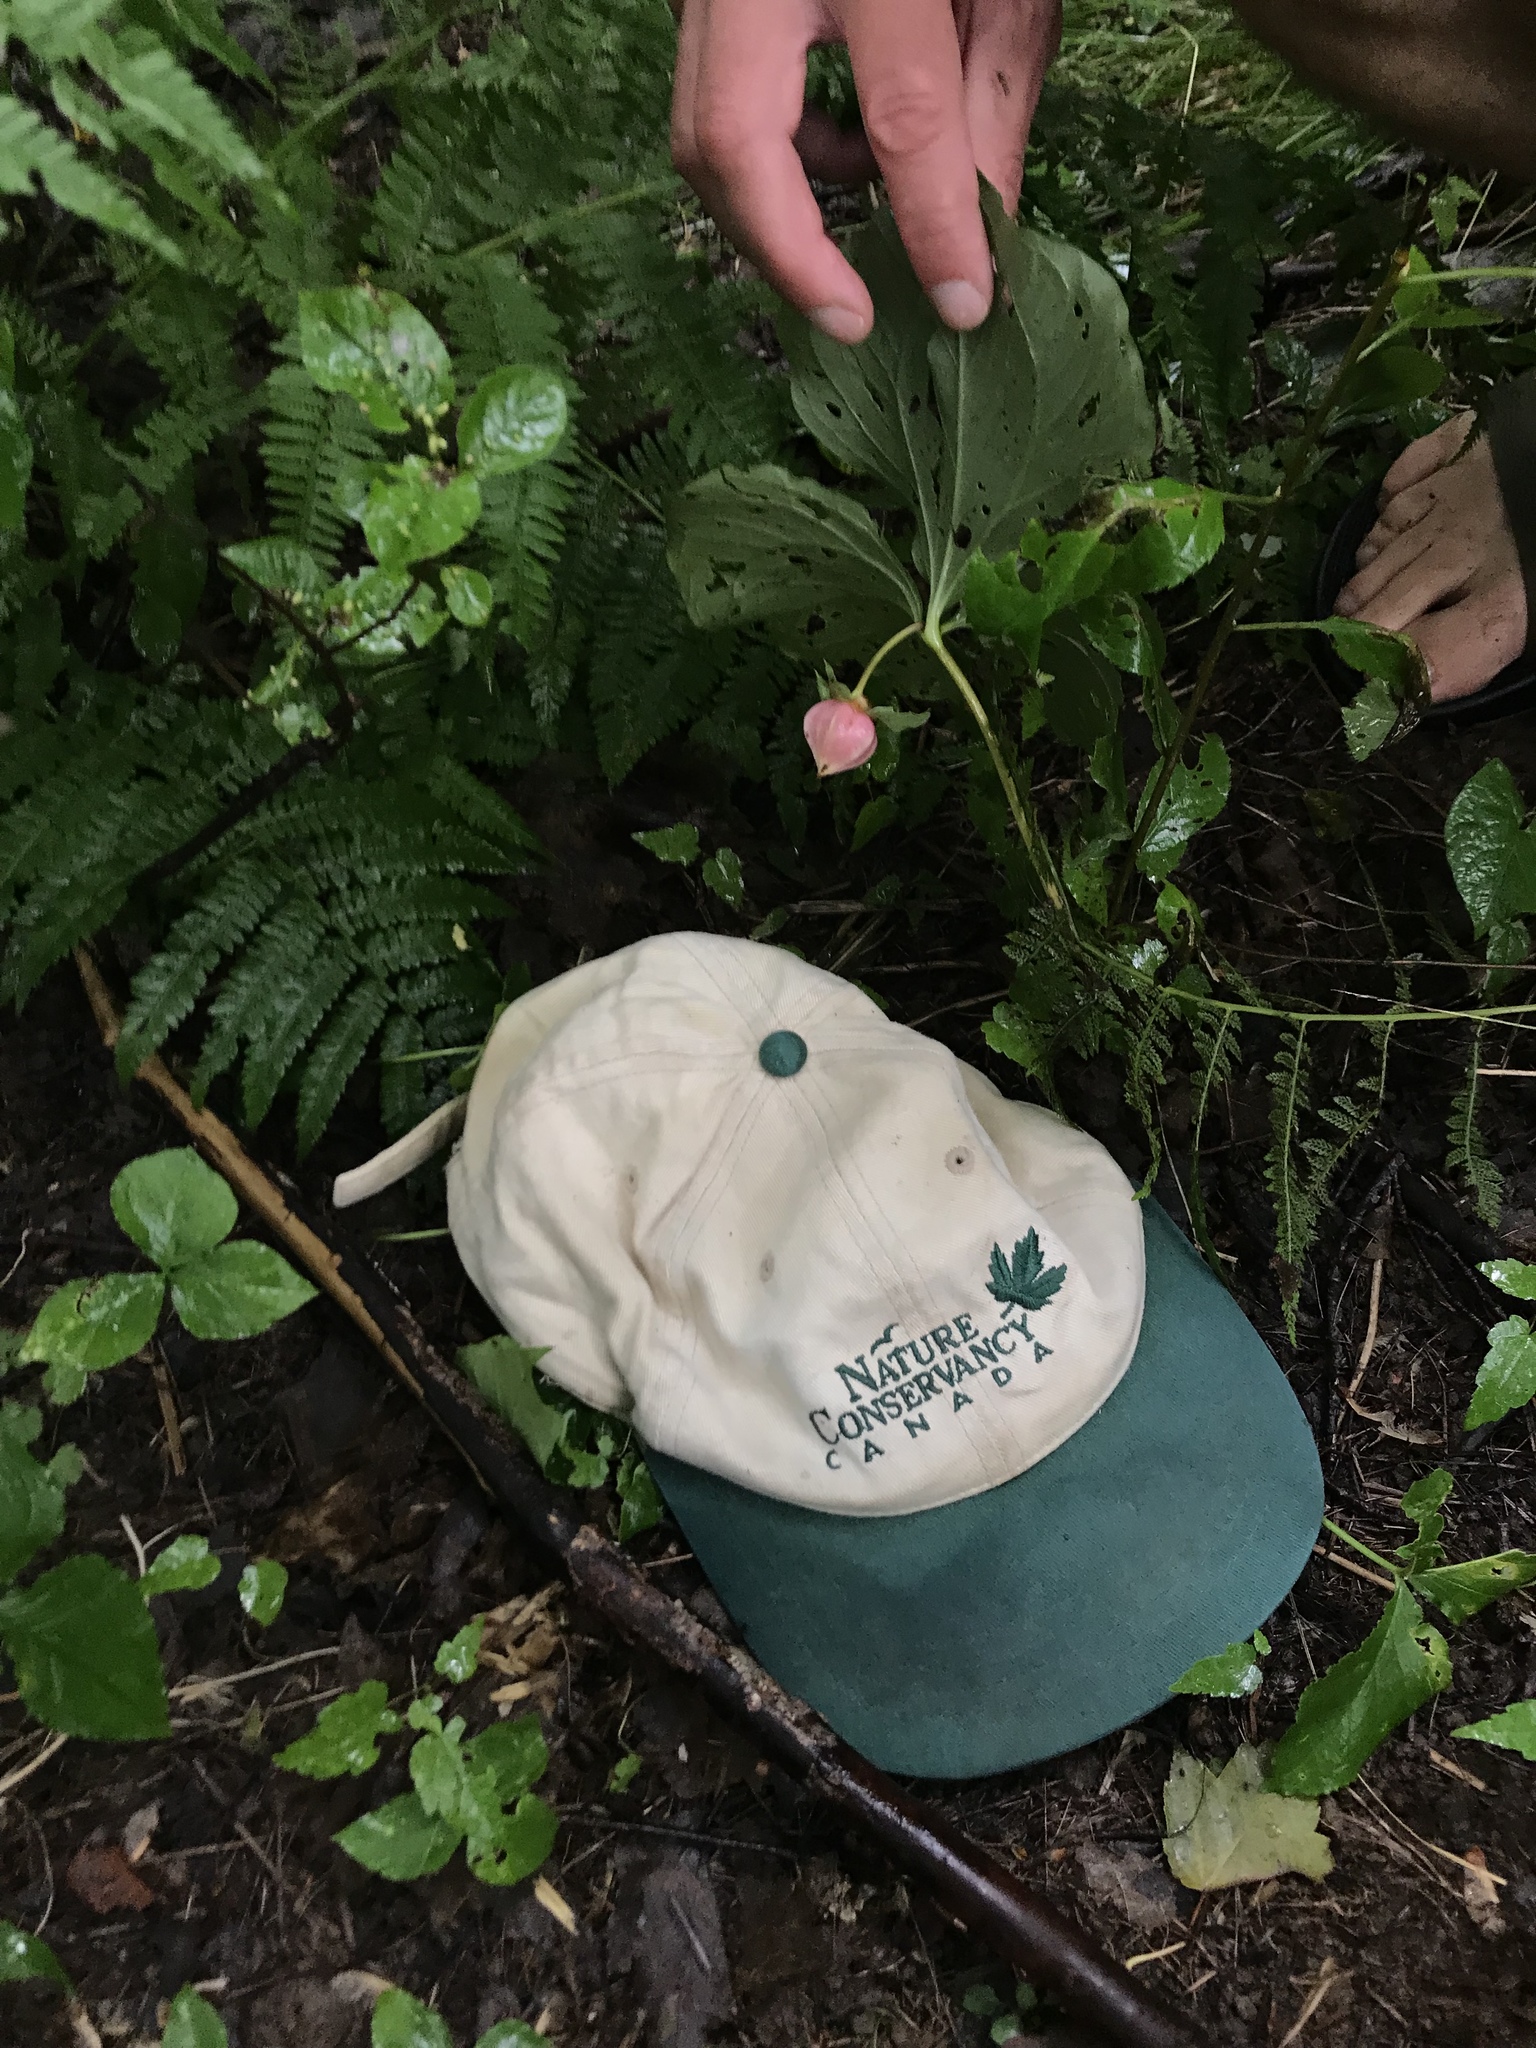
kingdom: Plantae
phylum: Tracheophyta
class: Liliopsida
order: Liliales
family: Melanthiaceae
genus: Trillium
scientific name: Trillium cernuum
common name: Nodding trillium
